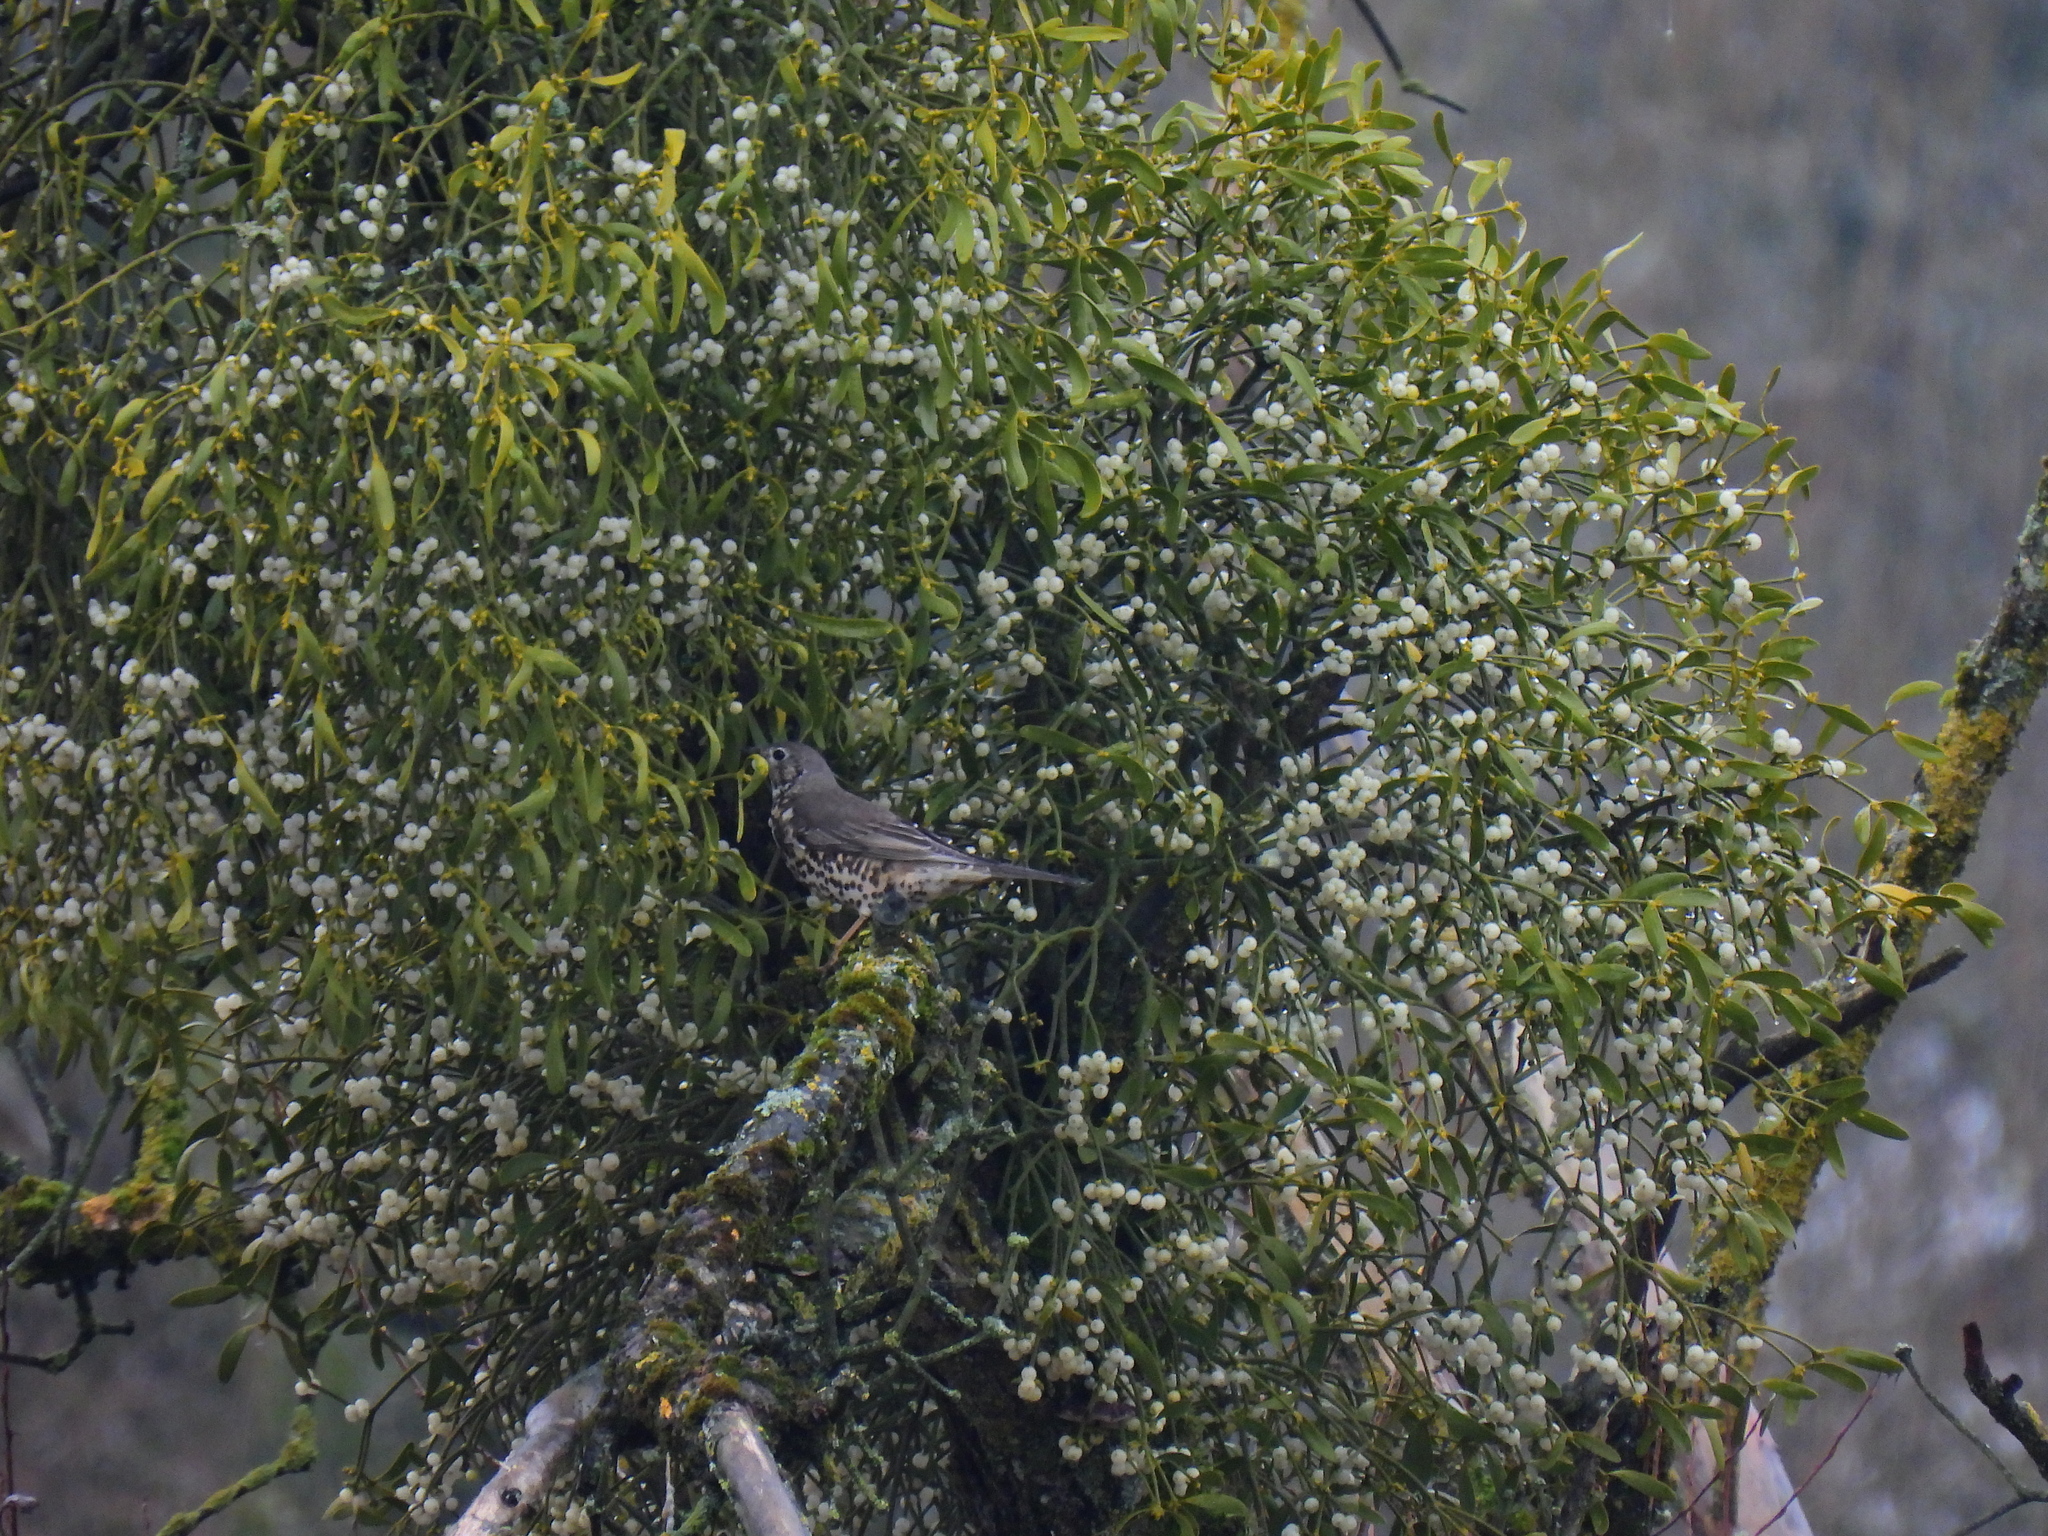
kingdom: Animalia
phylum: Chordata
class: Aves
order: Passeriformes
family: Turdidae
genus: Turdus
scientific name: Turdus viscivorus
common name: Mistle thrush
